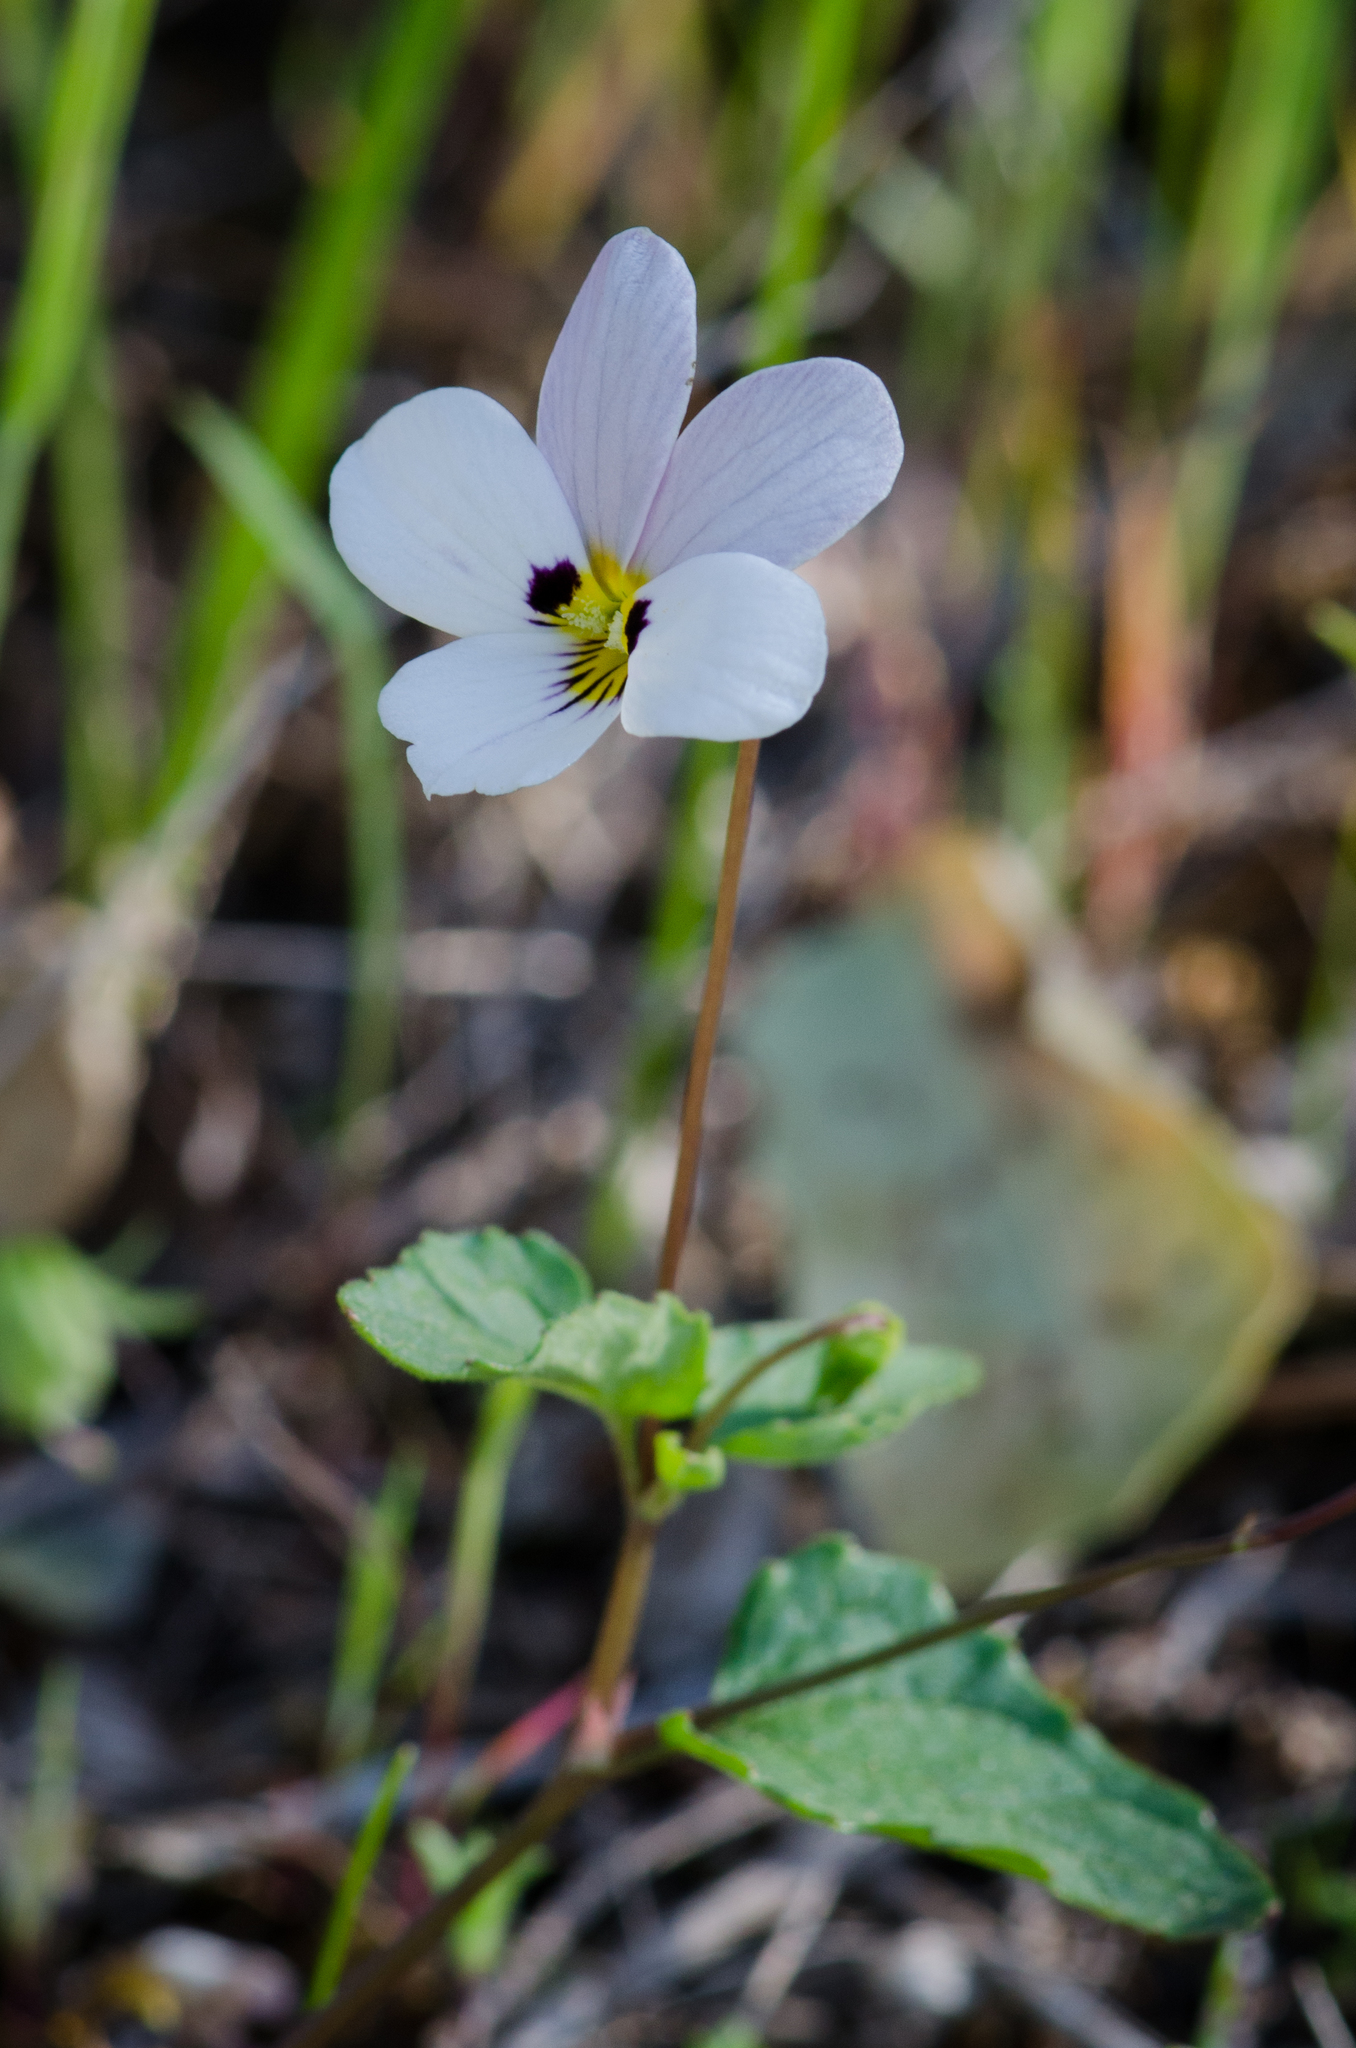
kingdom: Plantae
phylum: Tracheophyta
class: Magnoliopsida
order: Malpighiales
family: Violaceae
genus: Viola
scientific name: Viola ocellata
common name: Western heart's ease
